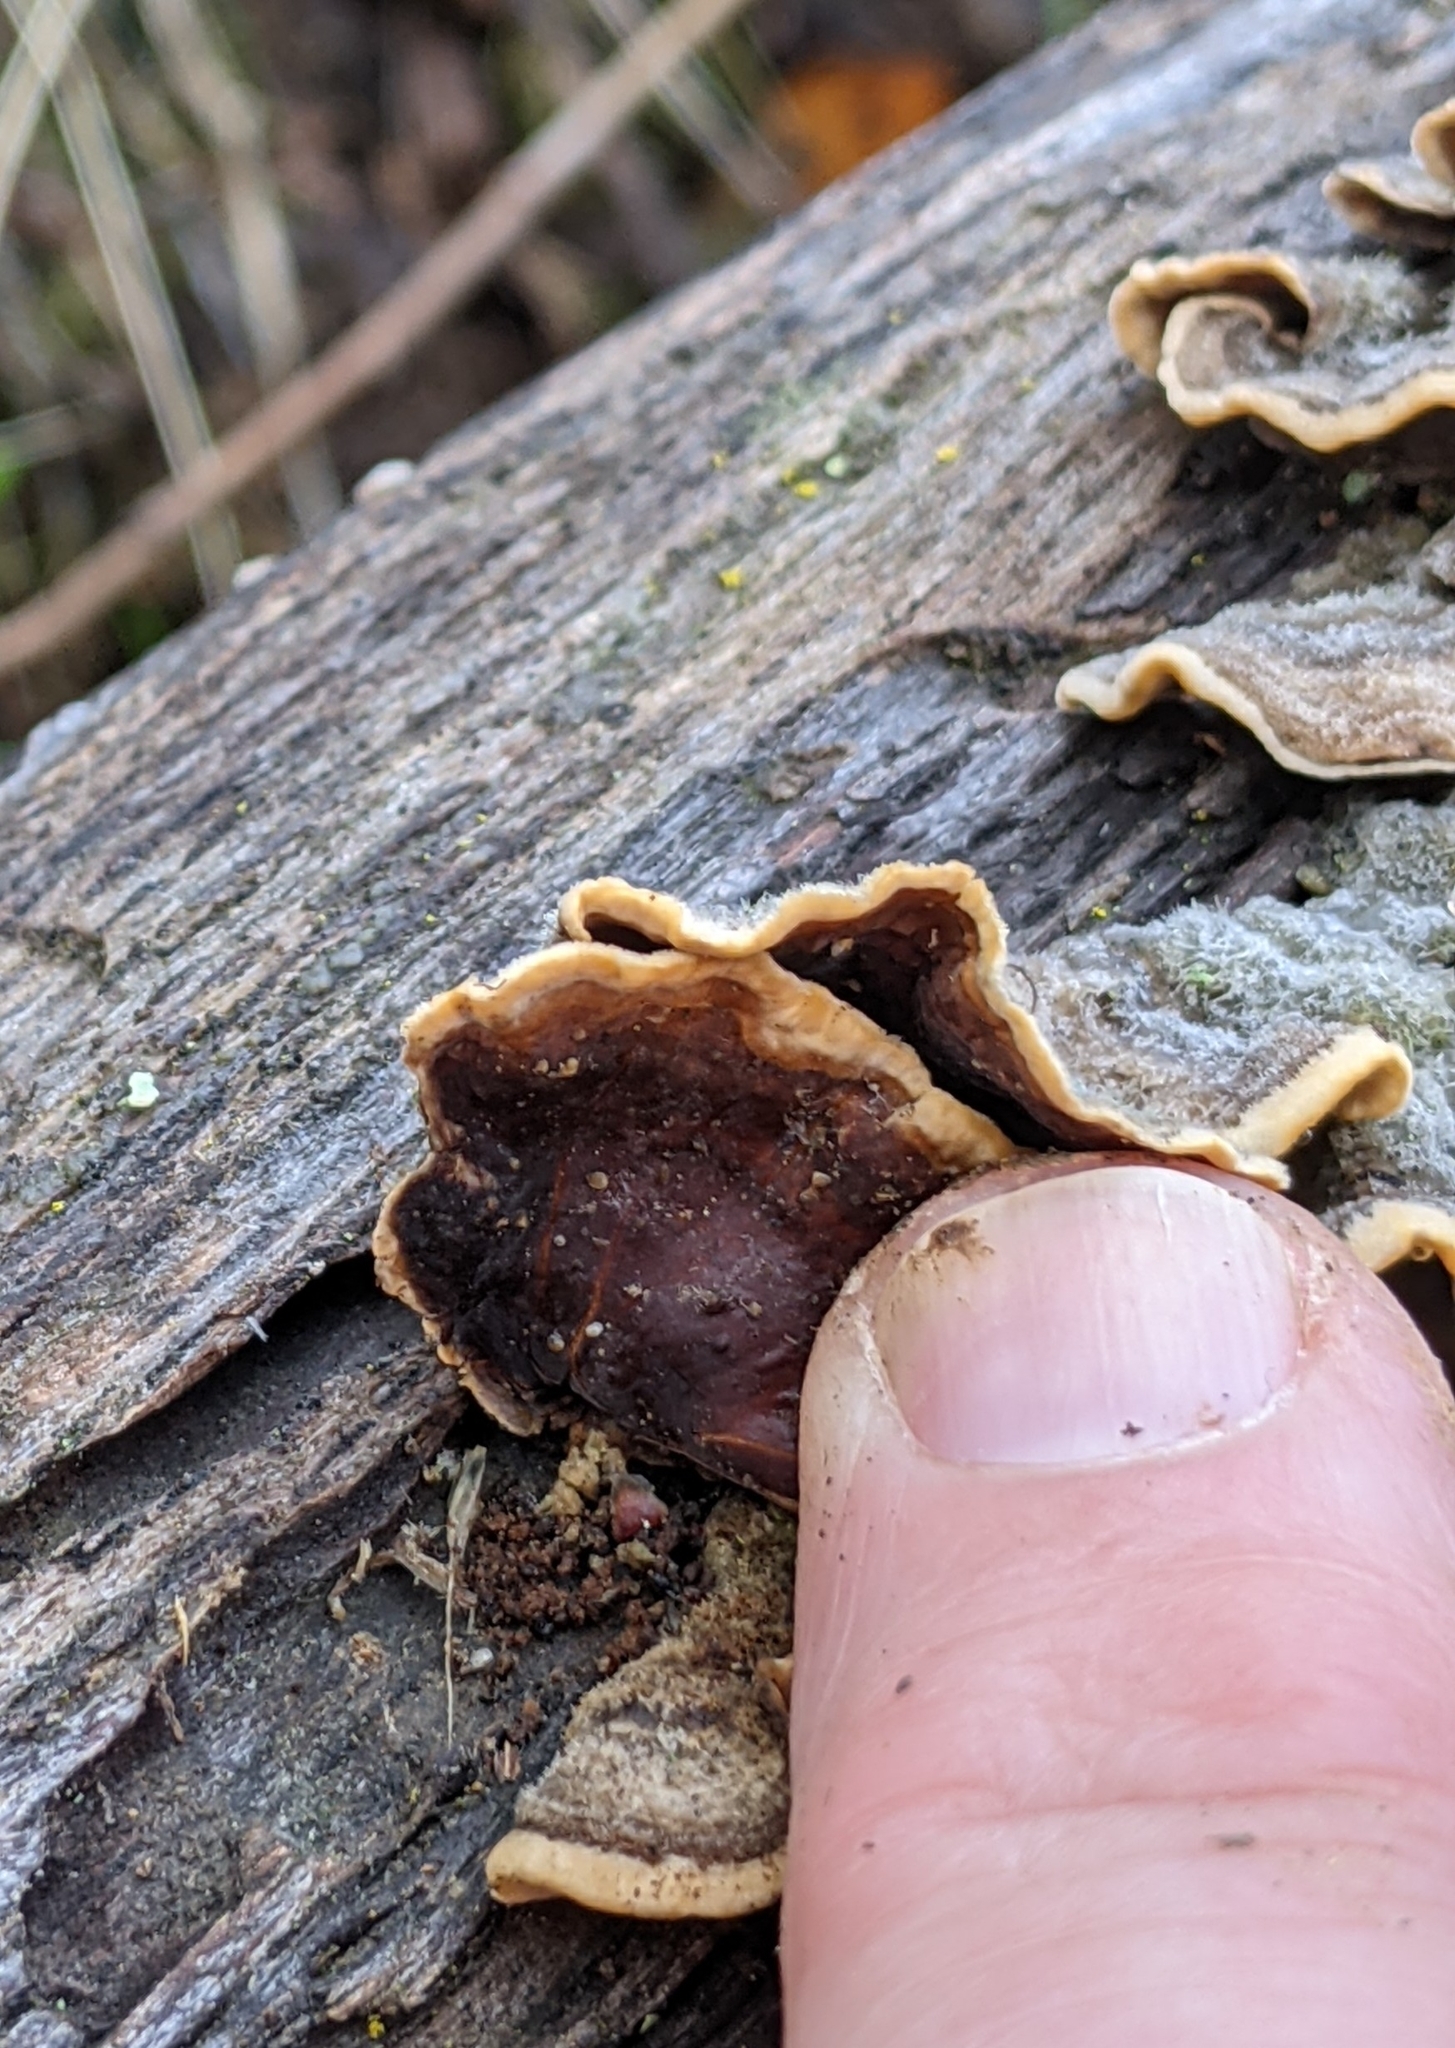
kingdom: Fungi
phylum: Basidiomycota
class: Agaricomycetes
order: Russulales
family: Stereaceae
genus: Stereum
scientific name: Stereum hirsutum
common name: Hairy curtain crust
